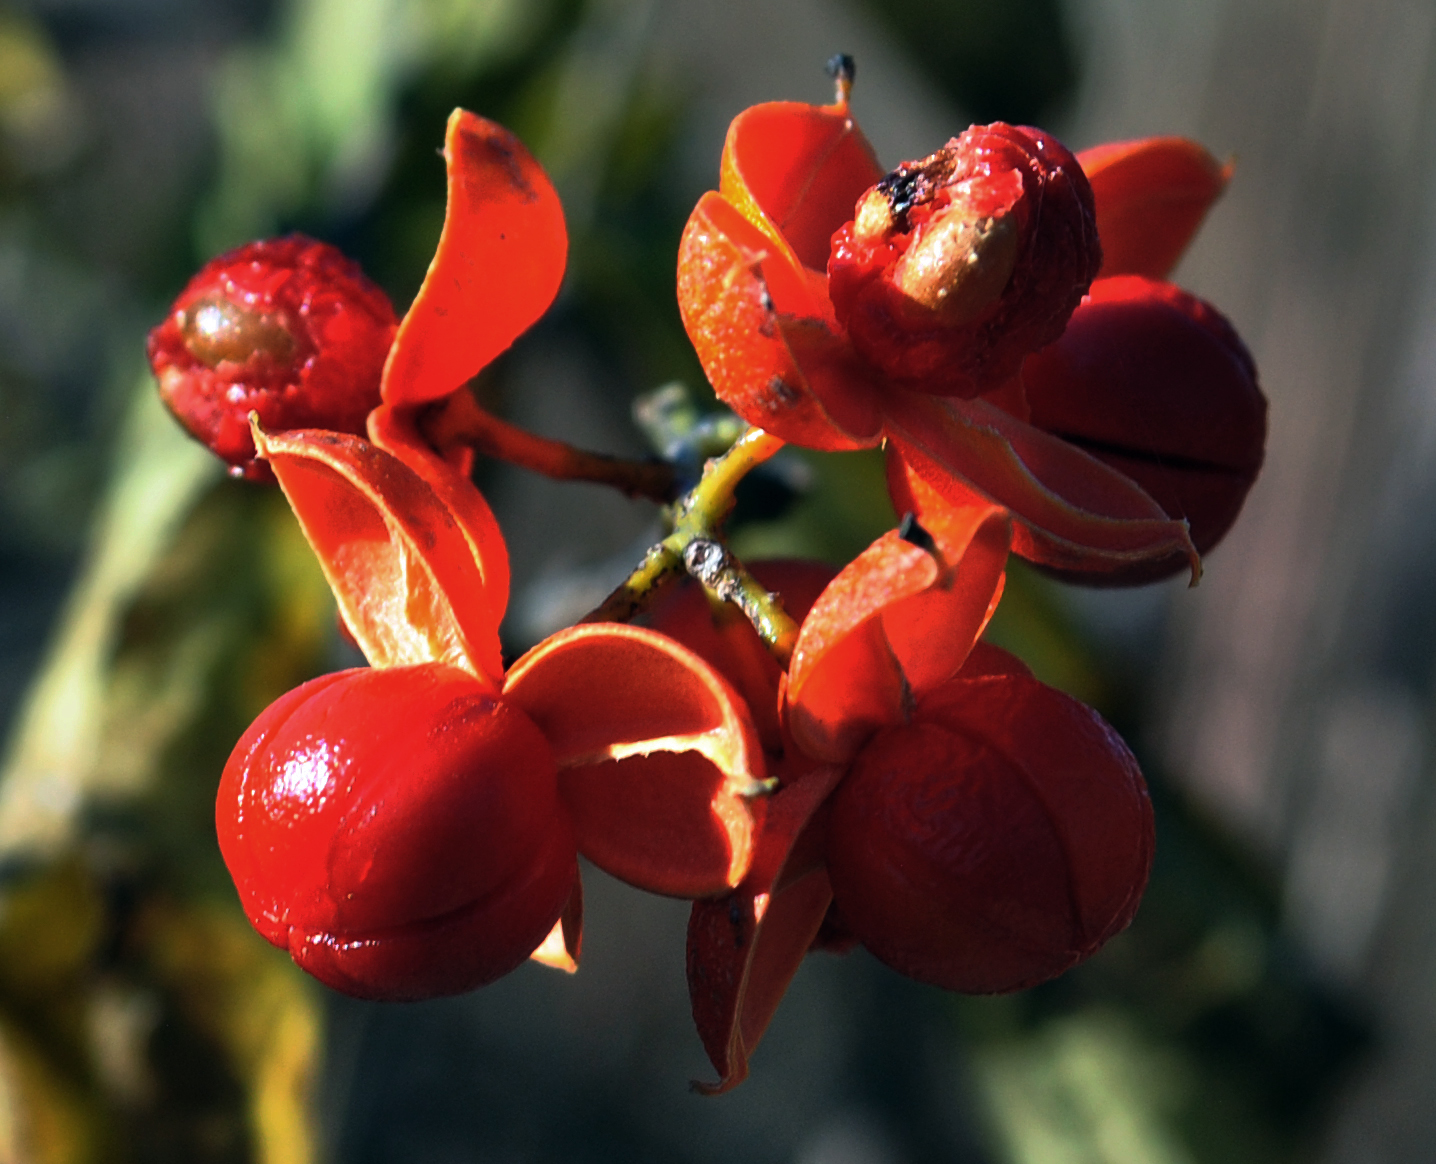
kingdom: Plantae
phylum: Tracheophyta
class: Magnoliopsida
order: Celastrales
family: Celastraceae
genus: Celastrus
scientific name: Celastrus scandens
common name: American bittersweet
